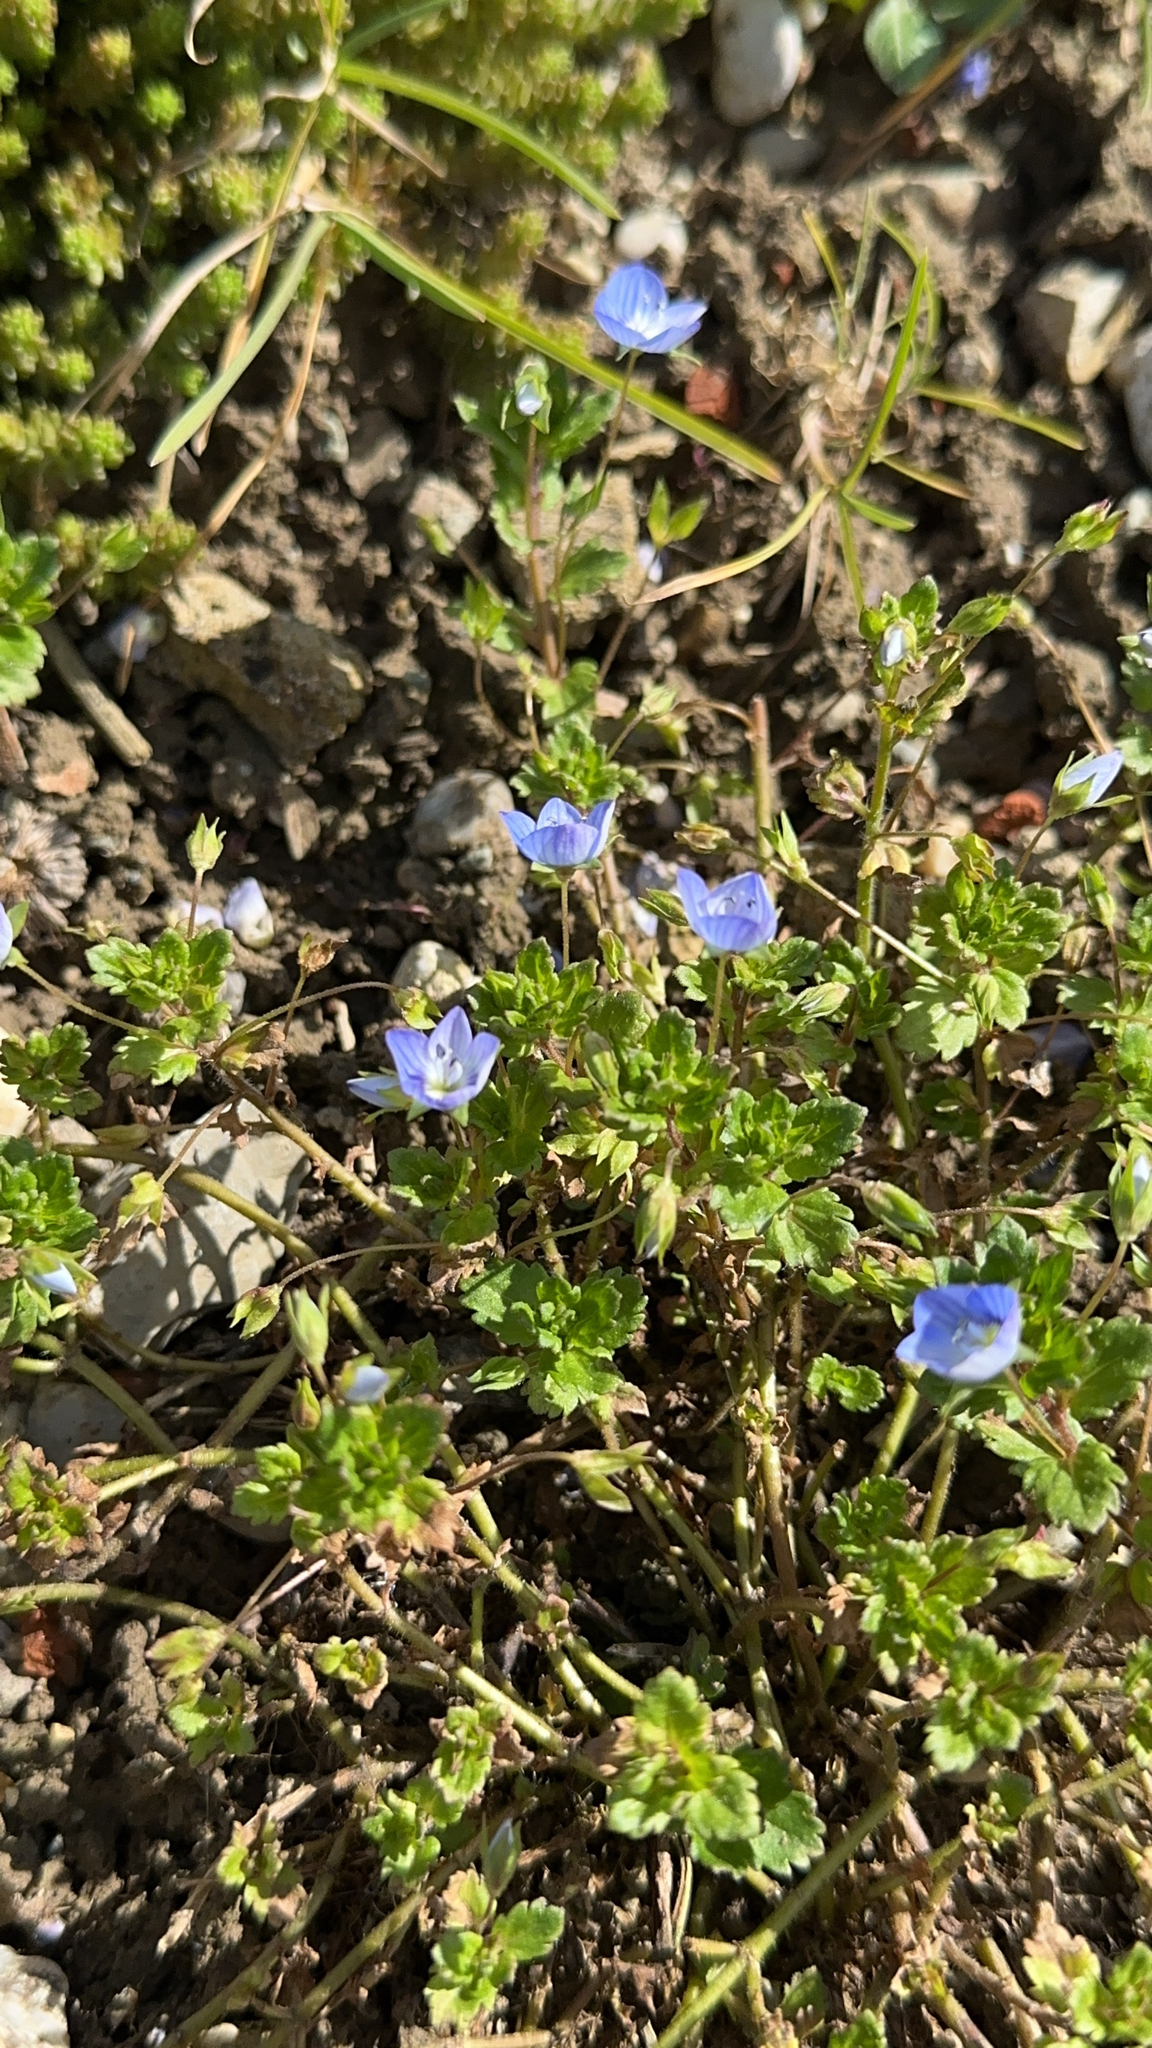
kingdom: Plantae
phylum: Tracheophyta
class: Magnoliopsida
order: Lamiales
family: Plantaginaceae
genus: Veronica
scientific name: Veronica persica
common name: Common field-speedwell
